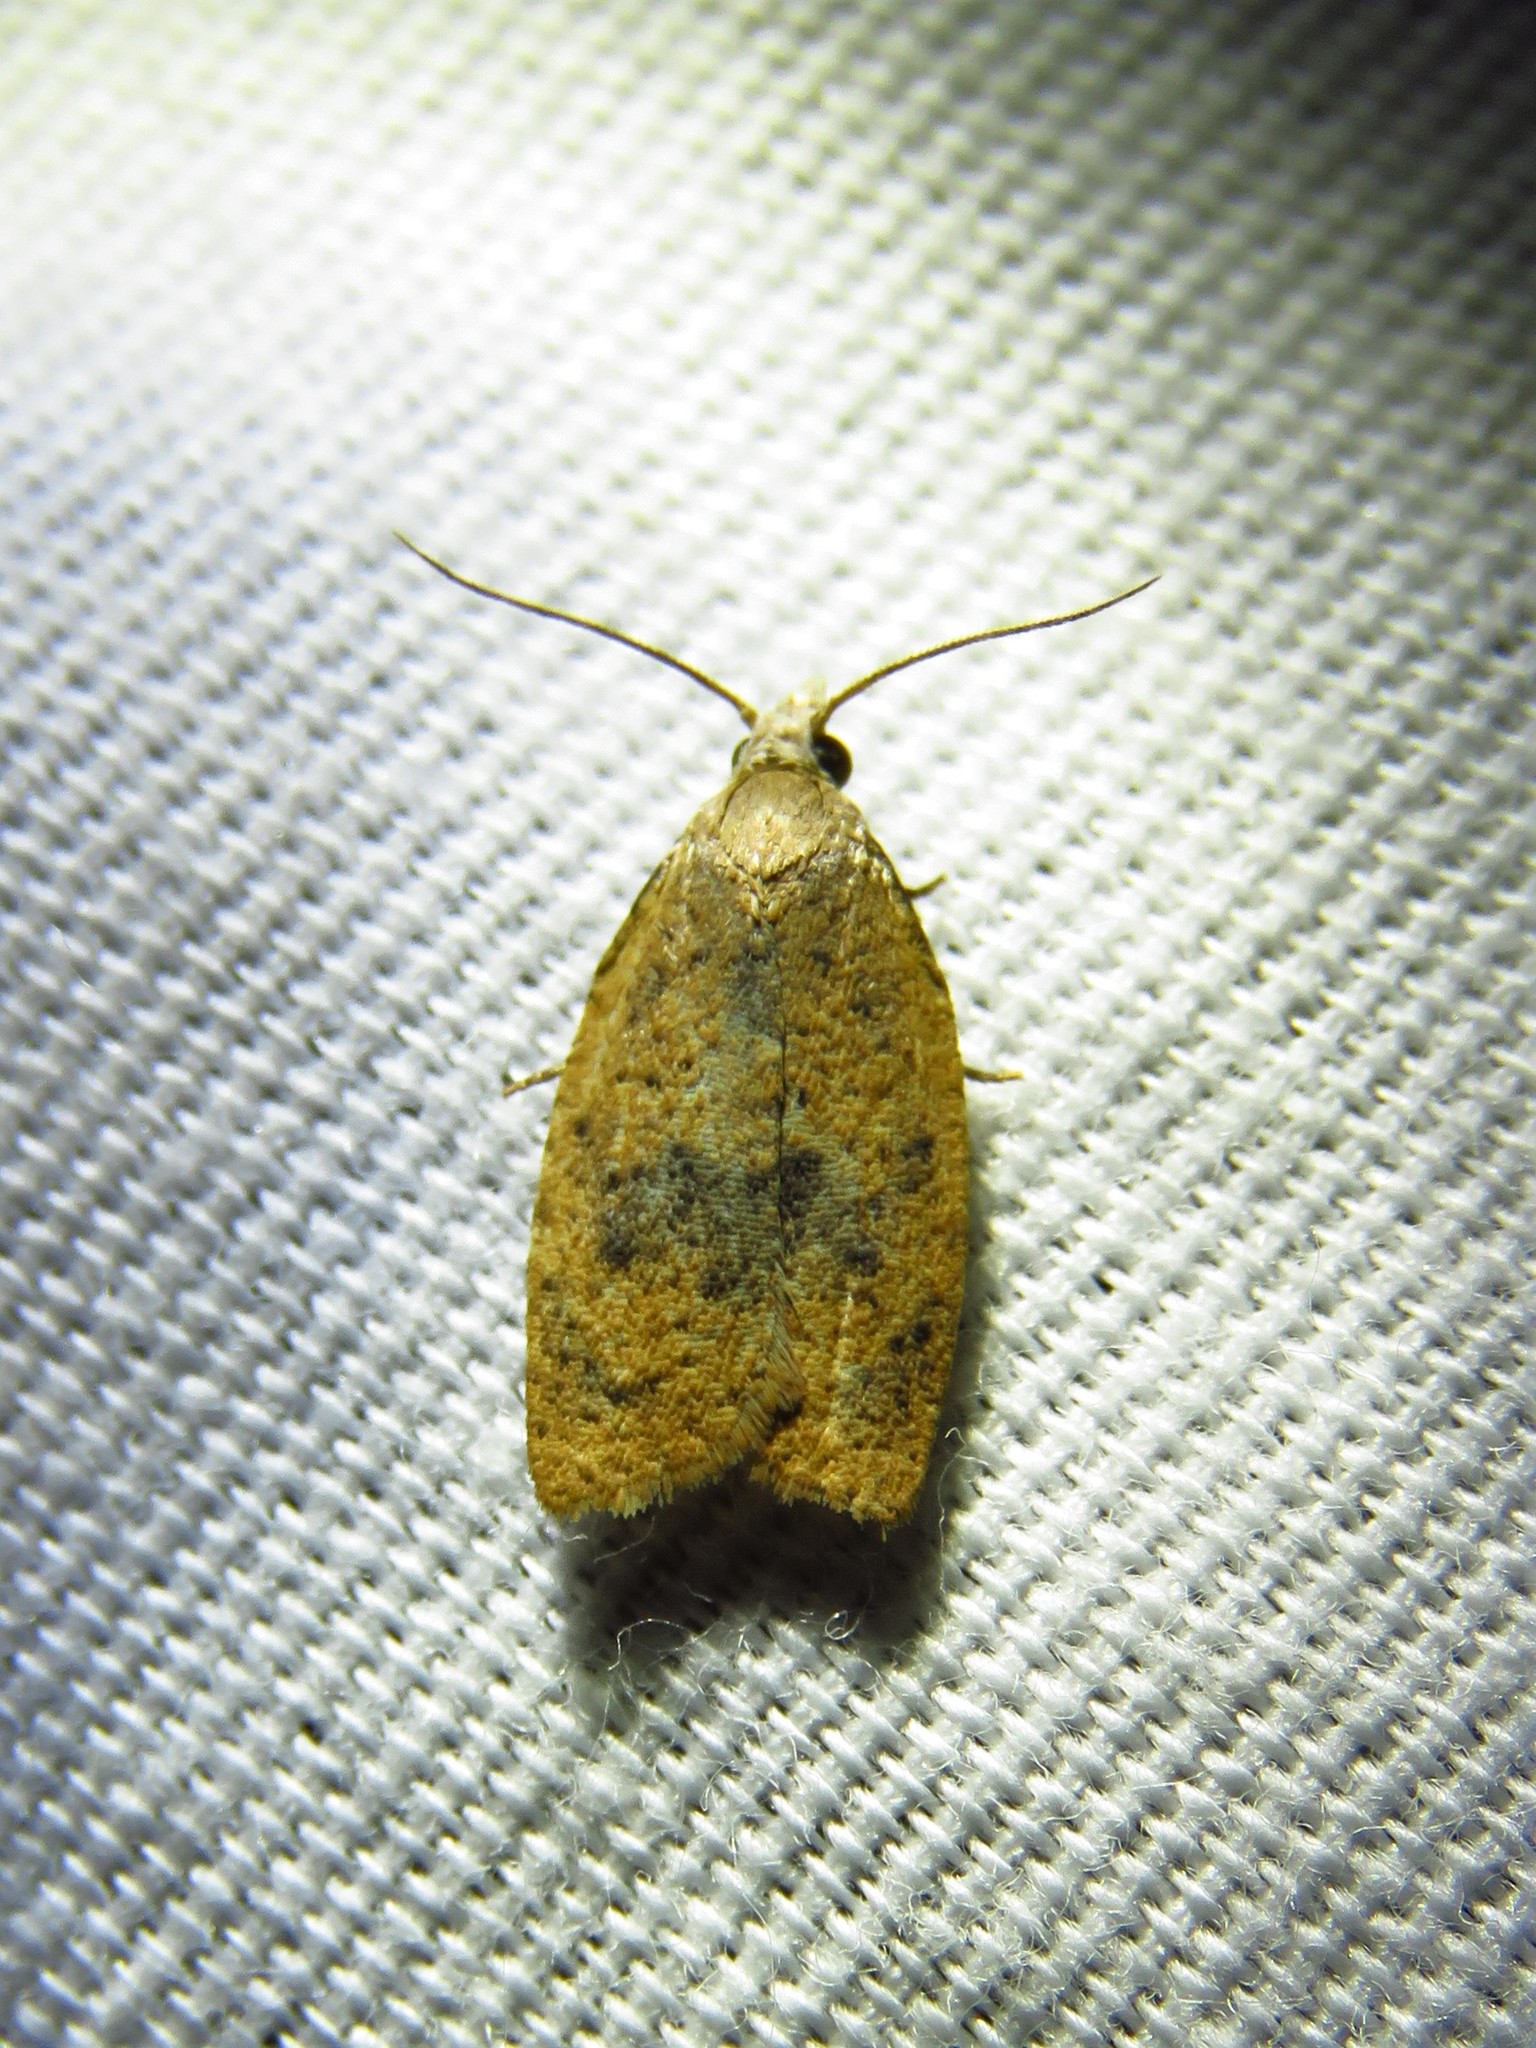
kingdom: Animalia
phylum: Arthropoda
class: Insecta
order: Lepidoptera
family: Tortricidae
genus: Sparganothoides
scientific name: Sparganothoides lentiginosana
